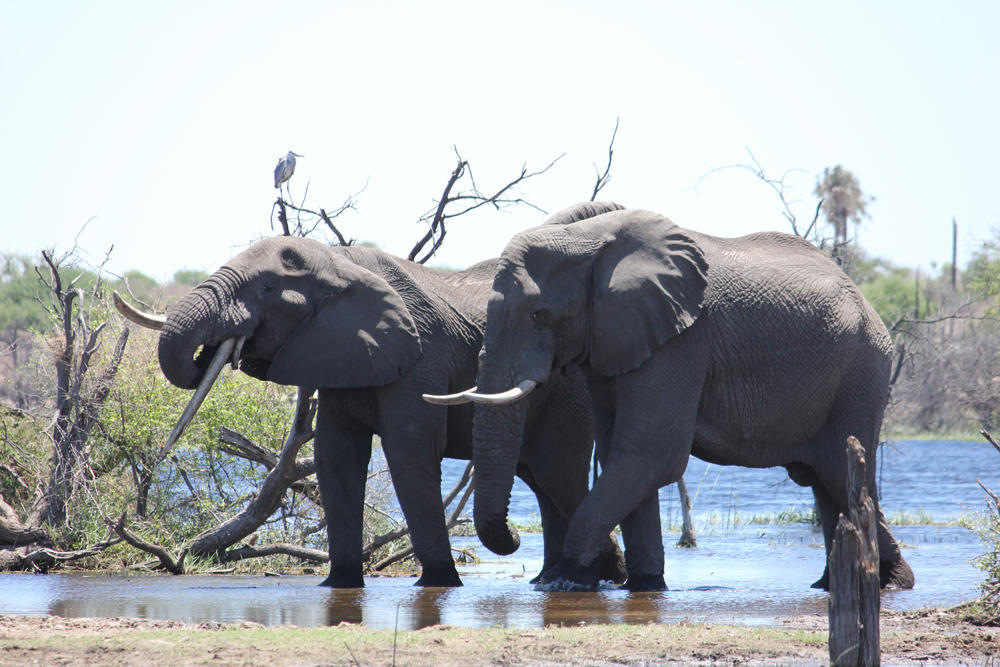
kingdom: Animalia
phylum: Chordata
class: Mammalia
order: Proboscidea
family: Elephantidae
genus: Loxodonta
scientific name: Loxodonta africana
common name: African elephant
